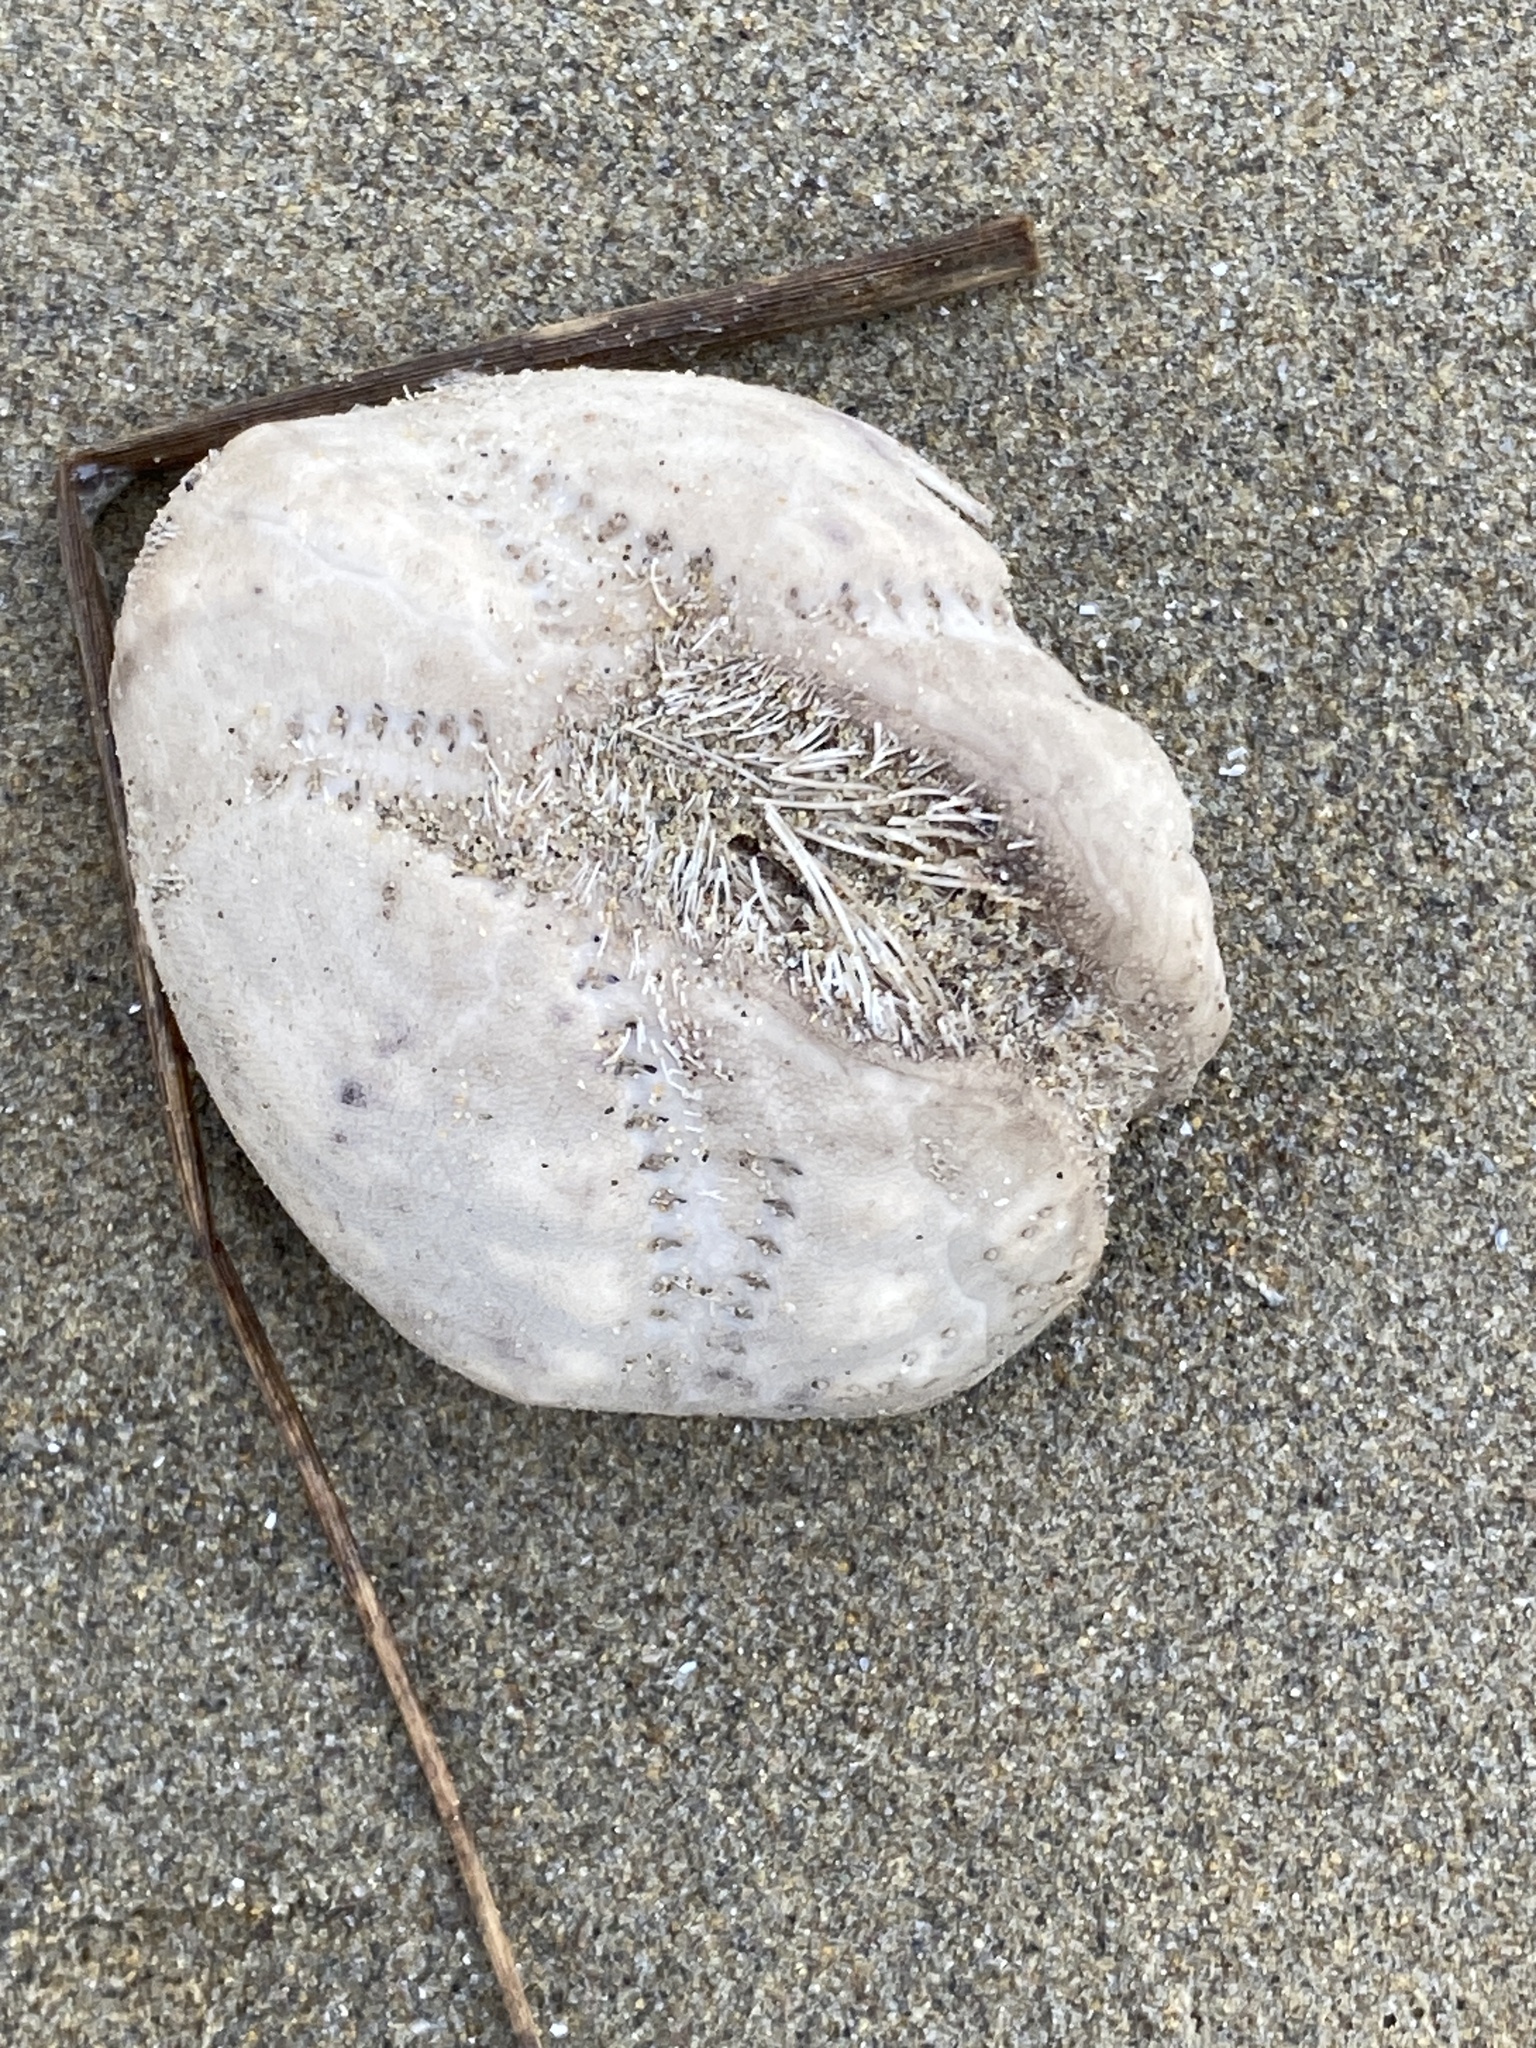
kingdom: Animalia
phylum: Echinodermata
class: Echinoidea
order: Spatangoida
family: Loveniidae
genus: Echinocardium
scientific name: Echinocardium cordatum
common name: Heart-urchin
